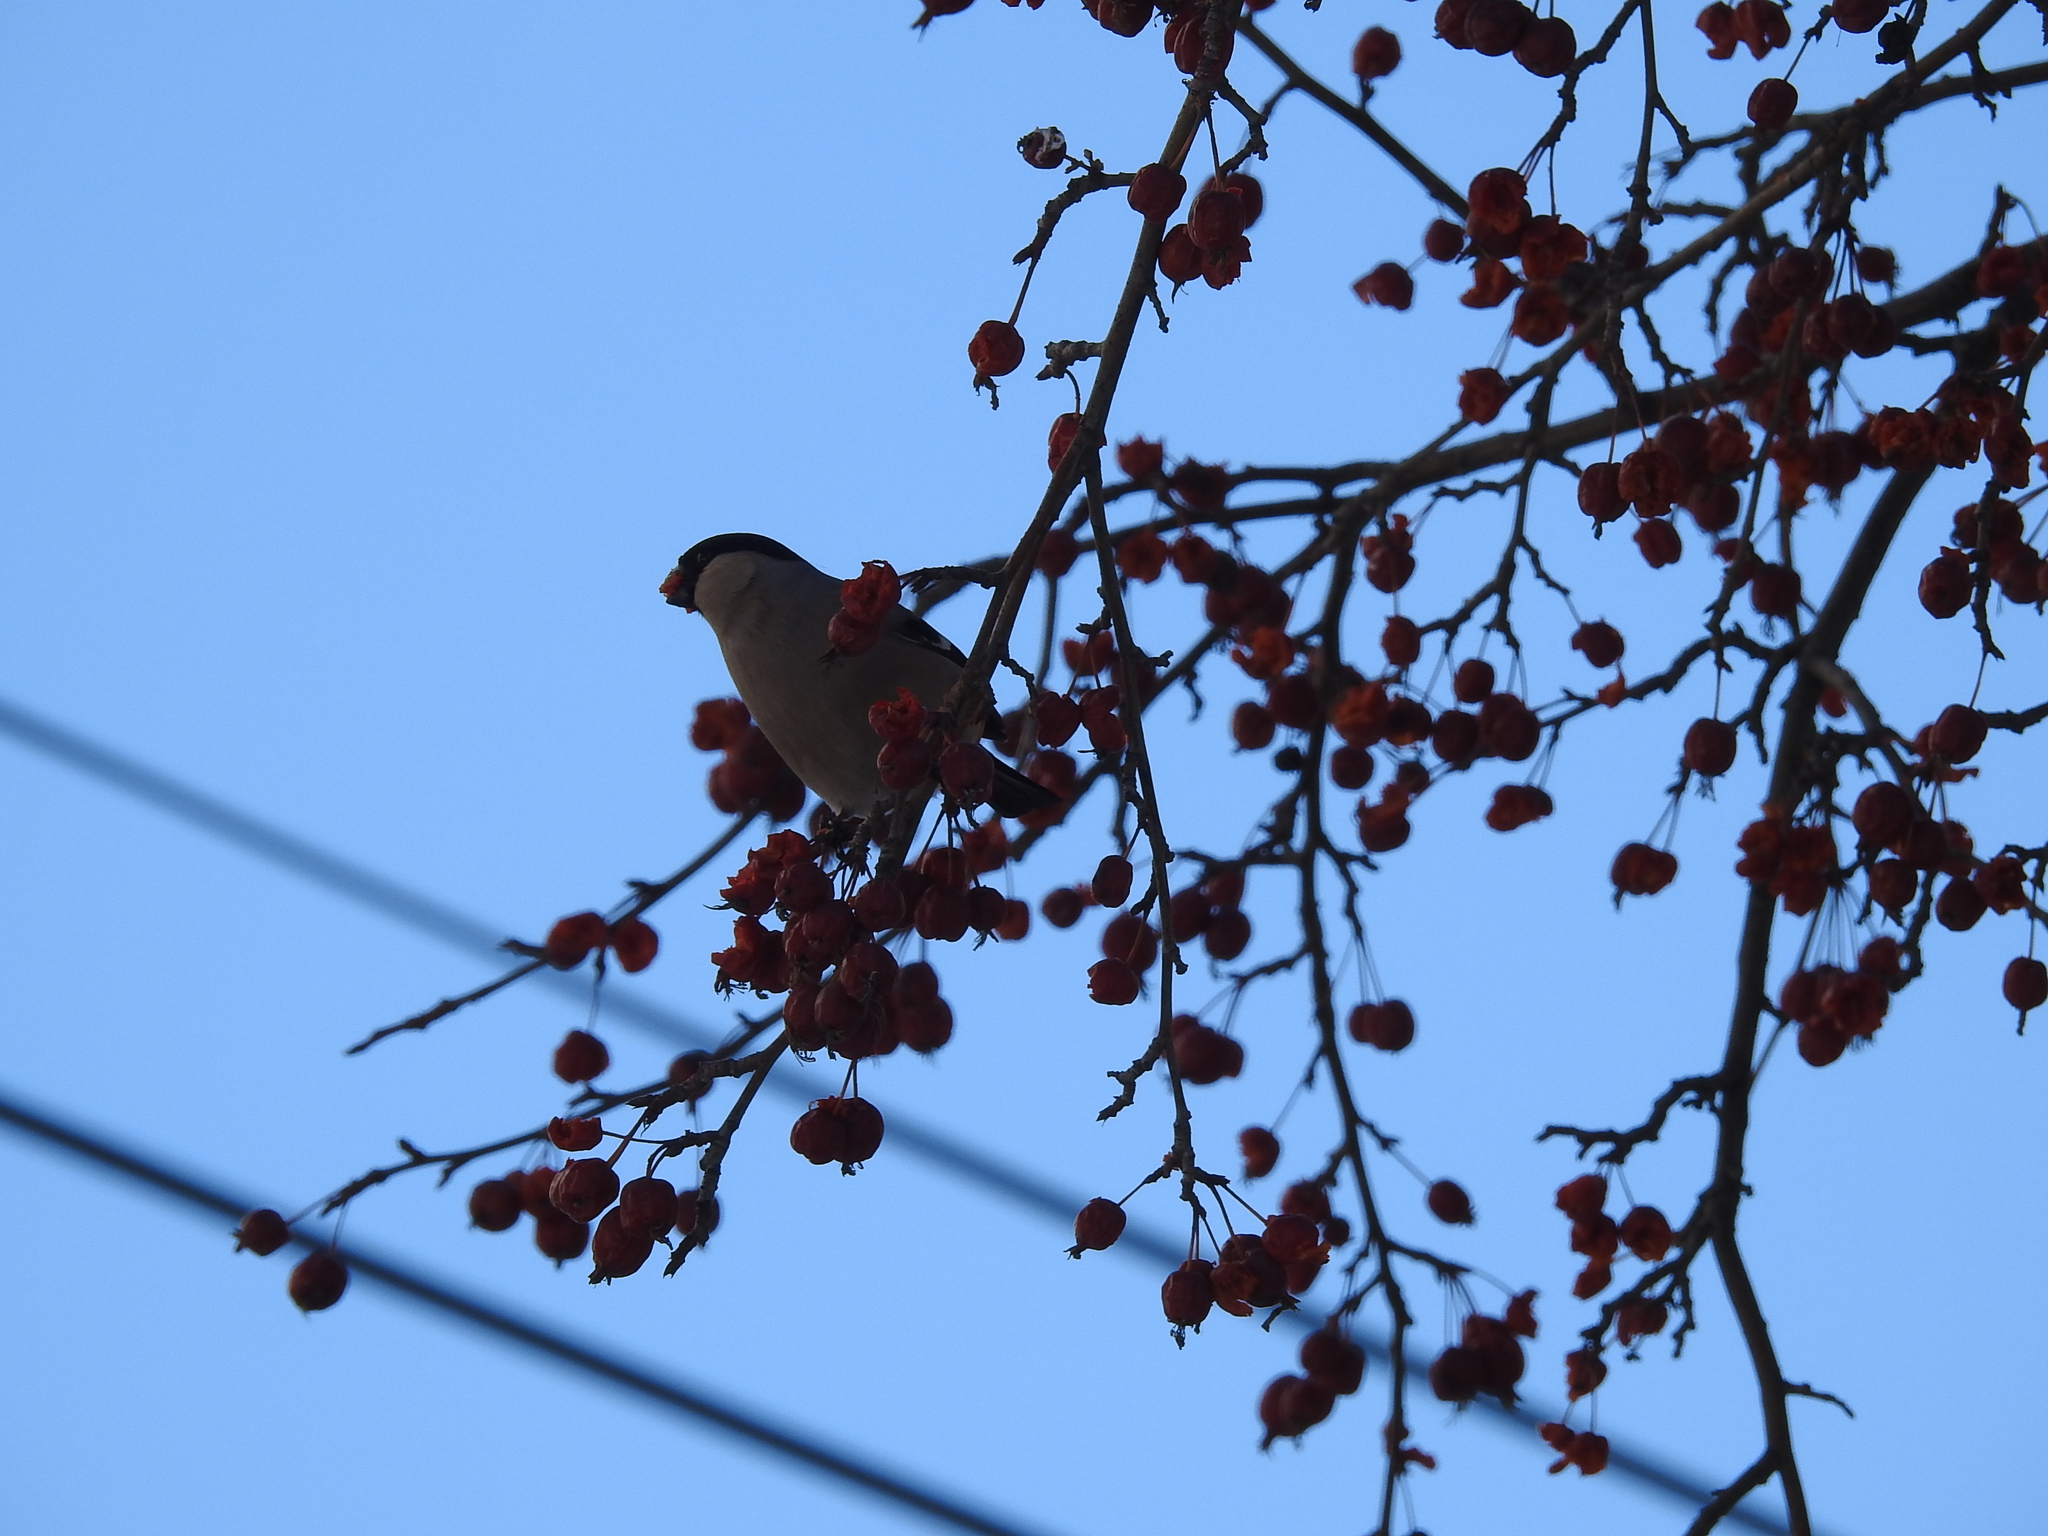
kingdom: Animalia
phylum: Chordata
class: Aves
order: Passeriformes
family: Fringillidae
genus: Pyrrhula
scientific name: Pyrrhula pyrrhula
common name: Eurasian bullfinch
